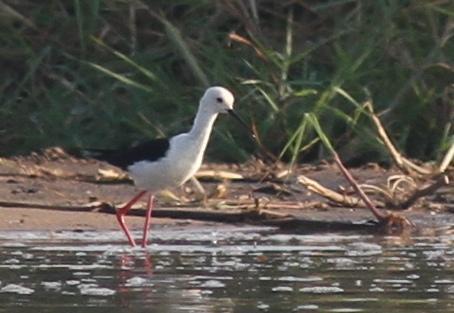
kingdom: Animalia
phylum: Chordata
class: Aves
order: Charadriiformes
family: Recurvirostridae
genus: Himantopus
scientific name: Himantopus himantopus
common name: Black-winged stilt
